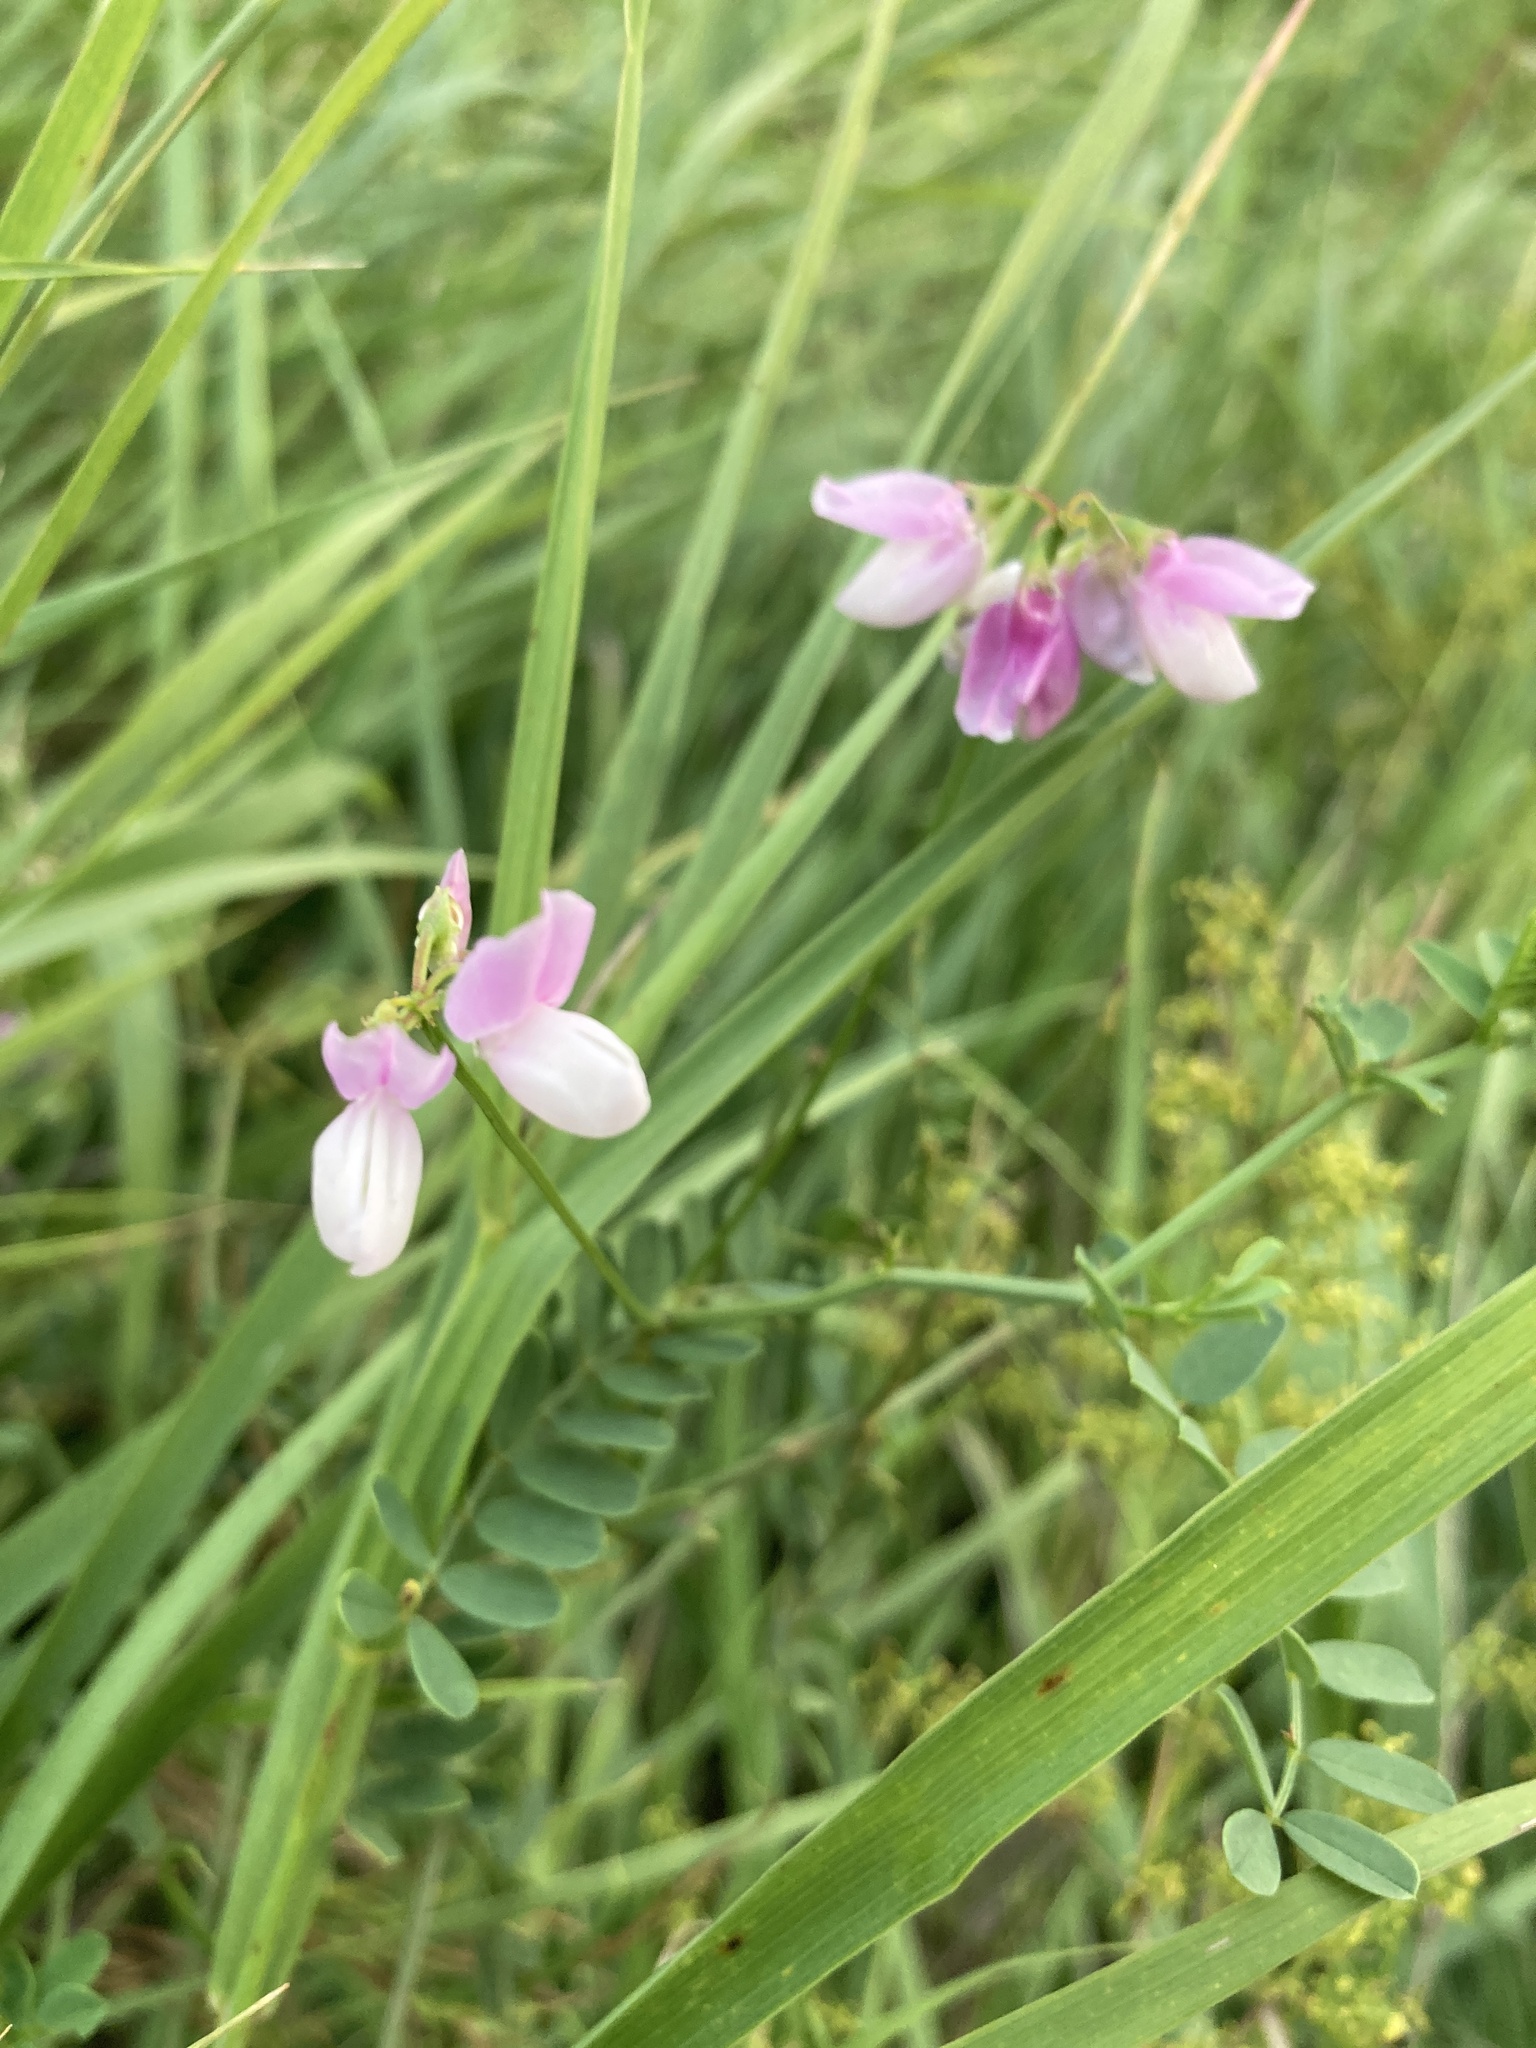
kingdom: Plantae
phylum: Tracheophyta
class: Magnoliopsida
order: Fabales
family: Fabaceae
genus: Coronilla
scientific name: Coronilla varia
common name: Crownvetch
